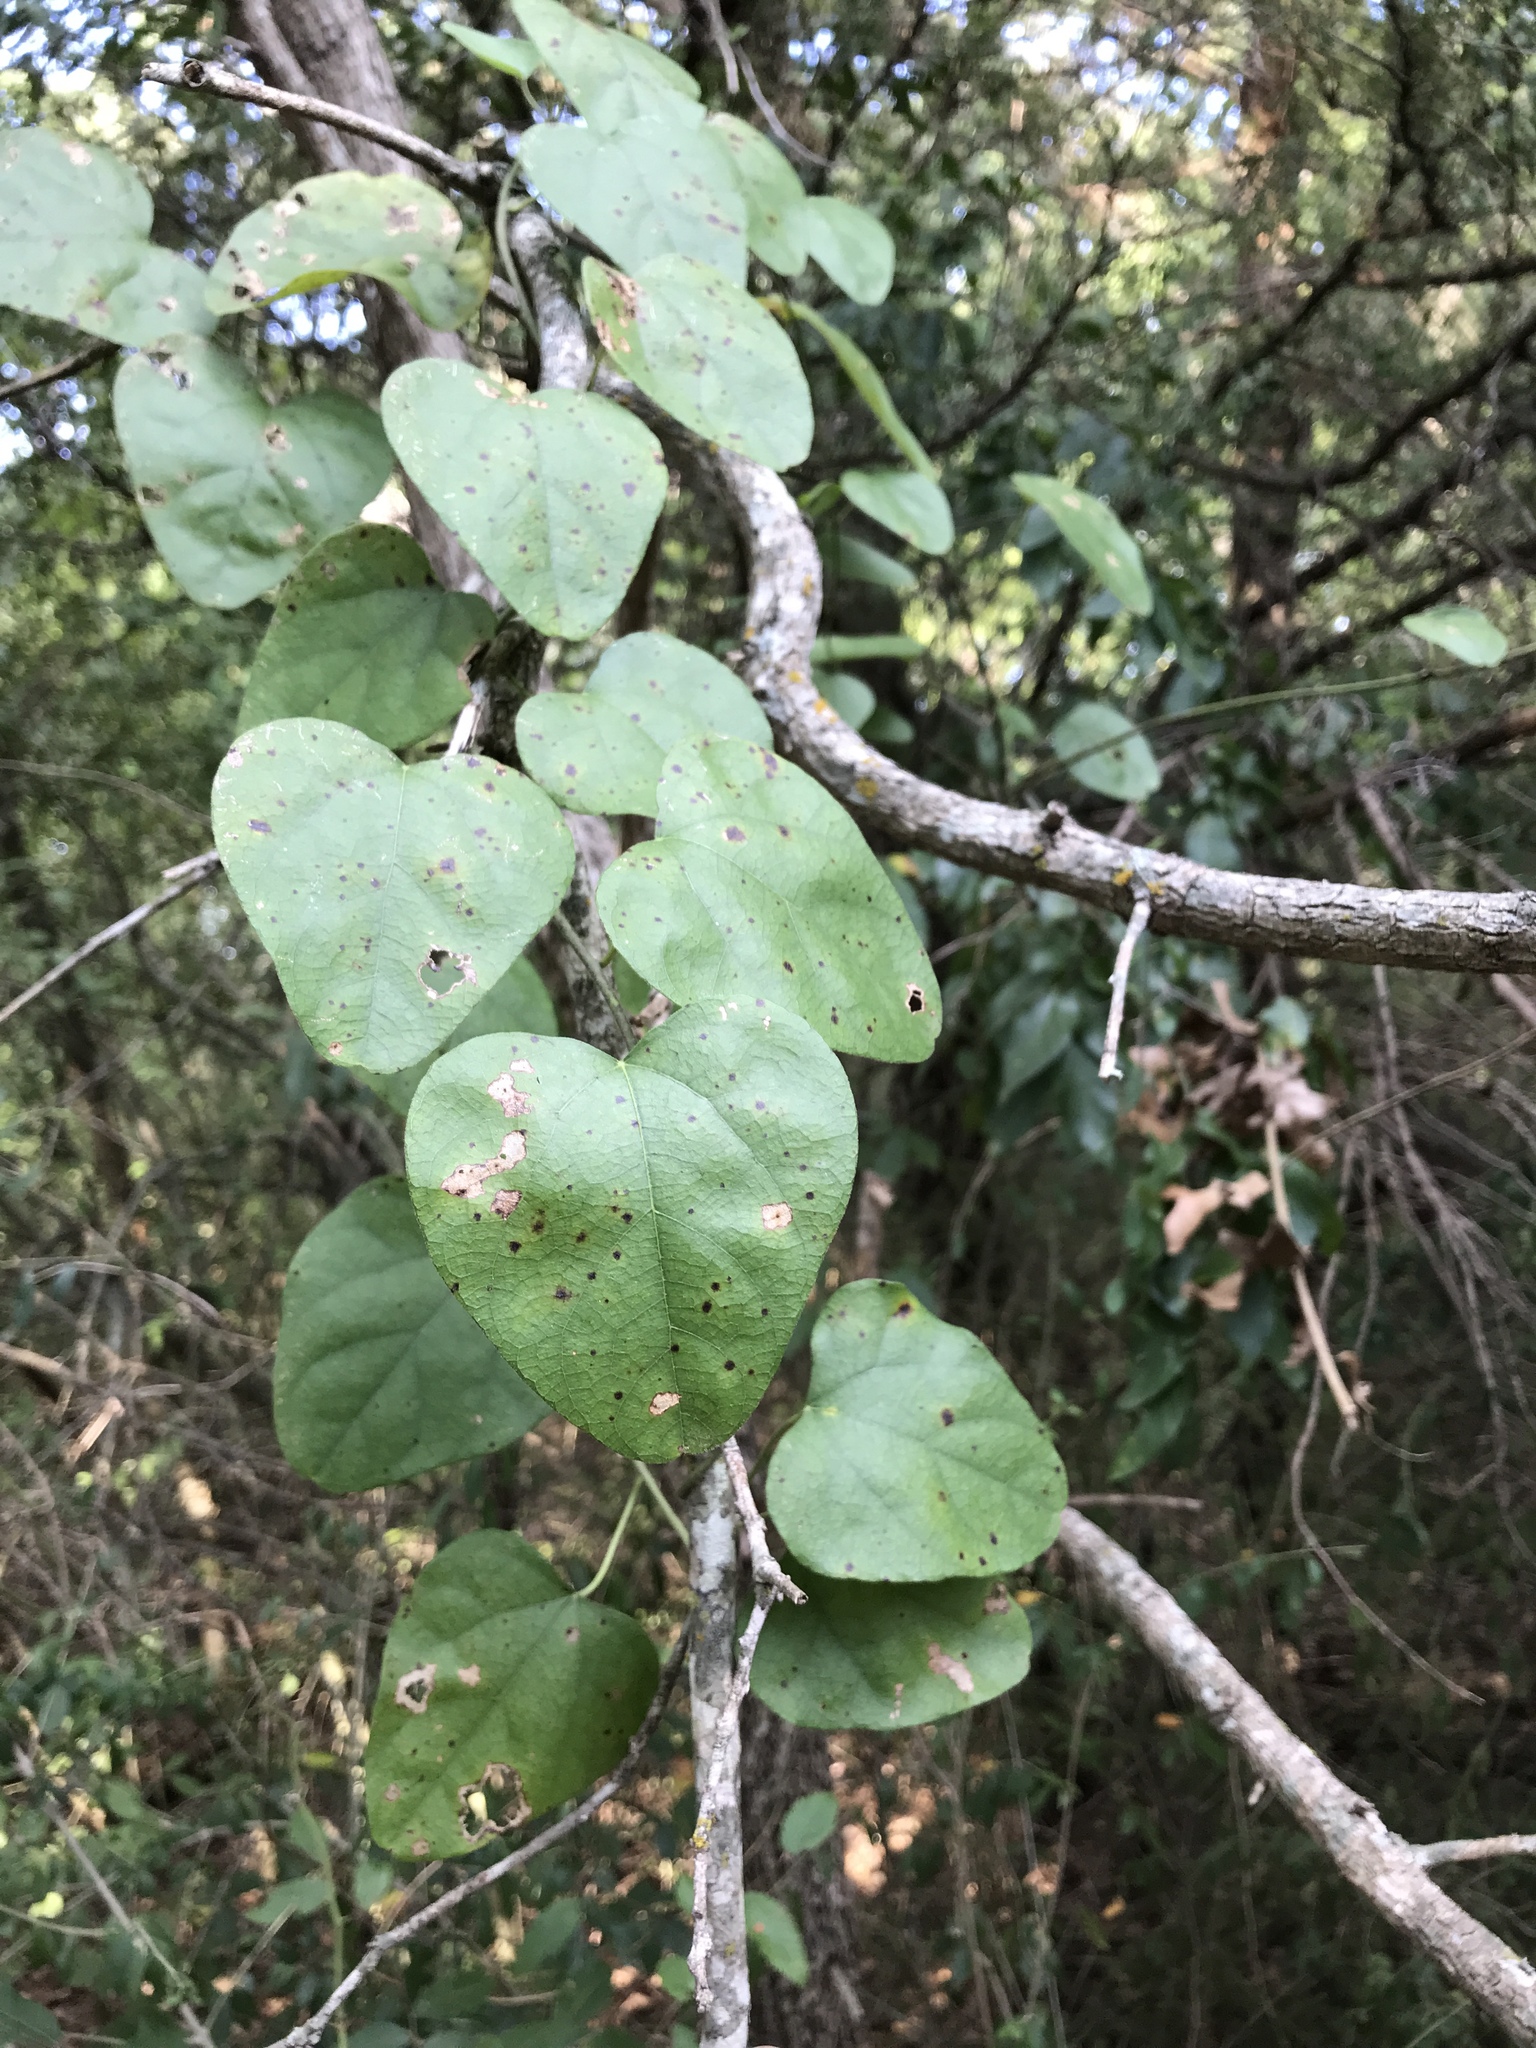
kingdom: Plantae
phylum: Tracheophyta
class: Magnoliopsida
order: Ranunculales
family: Menispermaceae
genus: Cocculus
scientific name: Cocculus carolinus
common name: Carolina moonseed
